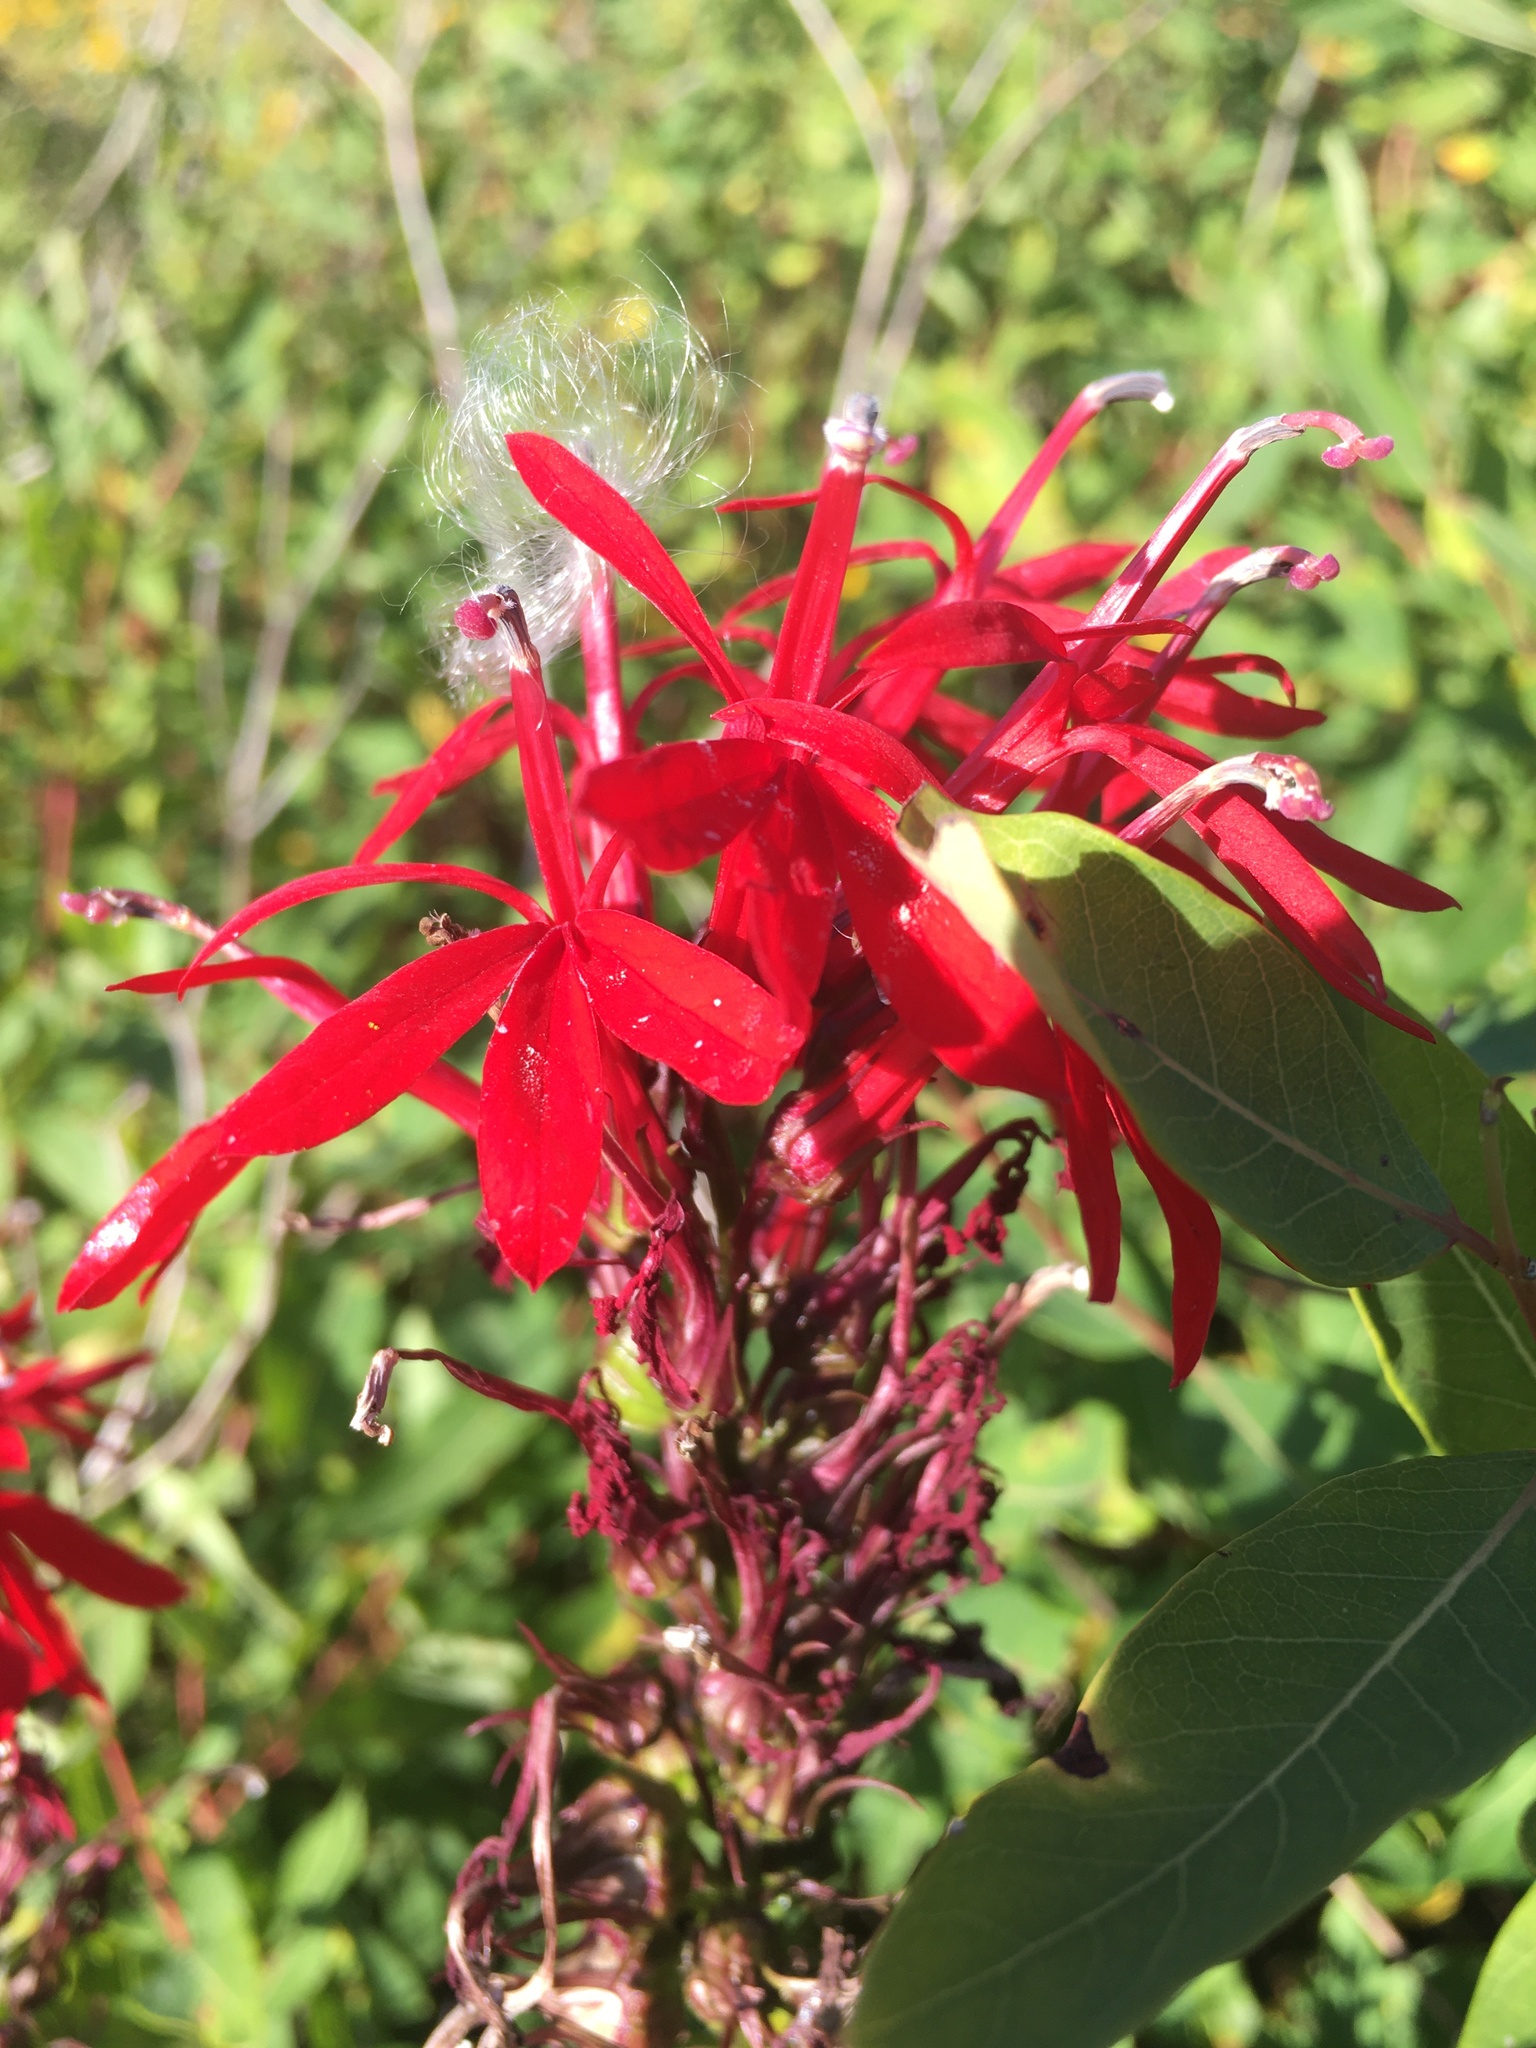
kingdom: Plantae
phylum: Tracheophyta
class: Magnoliopsida
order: Asterales
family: Campanulaceae
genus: Lobelia
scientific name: Lobelia cardinalis
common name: Cardinal flower
